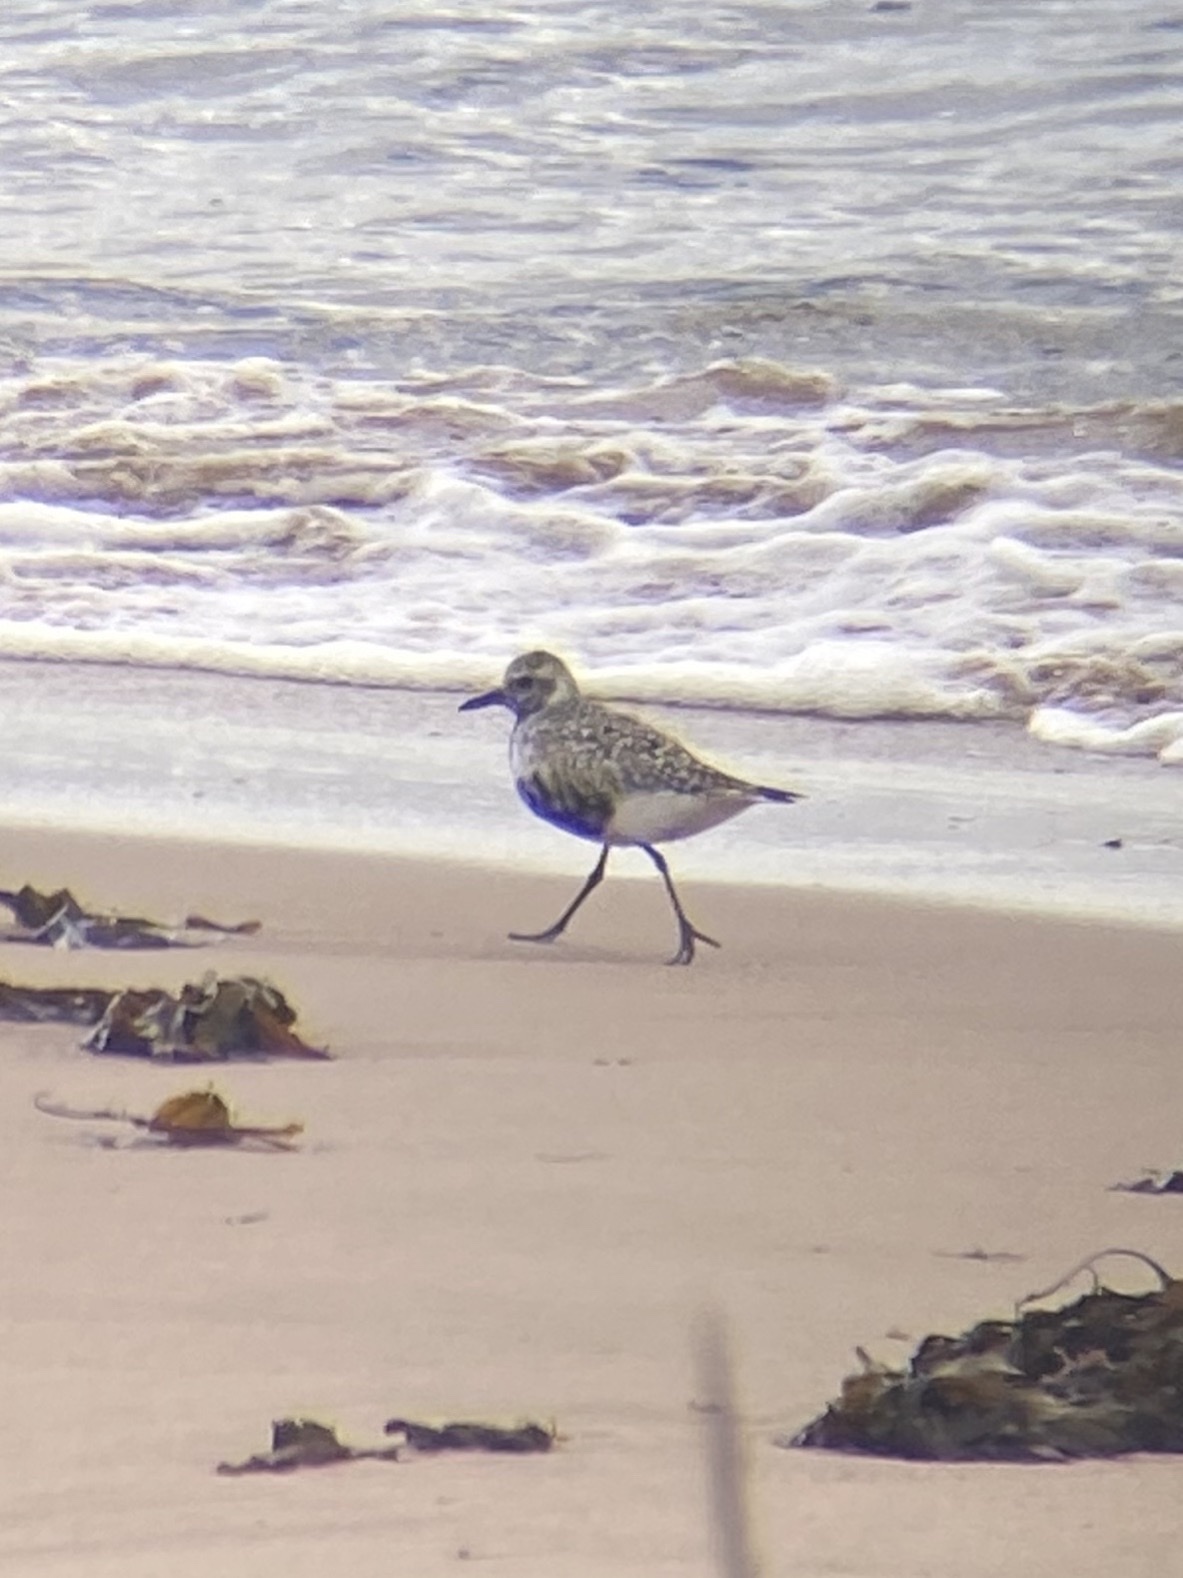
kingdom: Animalia
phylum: Chordata
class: Aves
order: Charadriiformes
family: Charadriidae
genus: Pluvialis
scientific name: Pluvialis squatarola
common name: Grey plover
